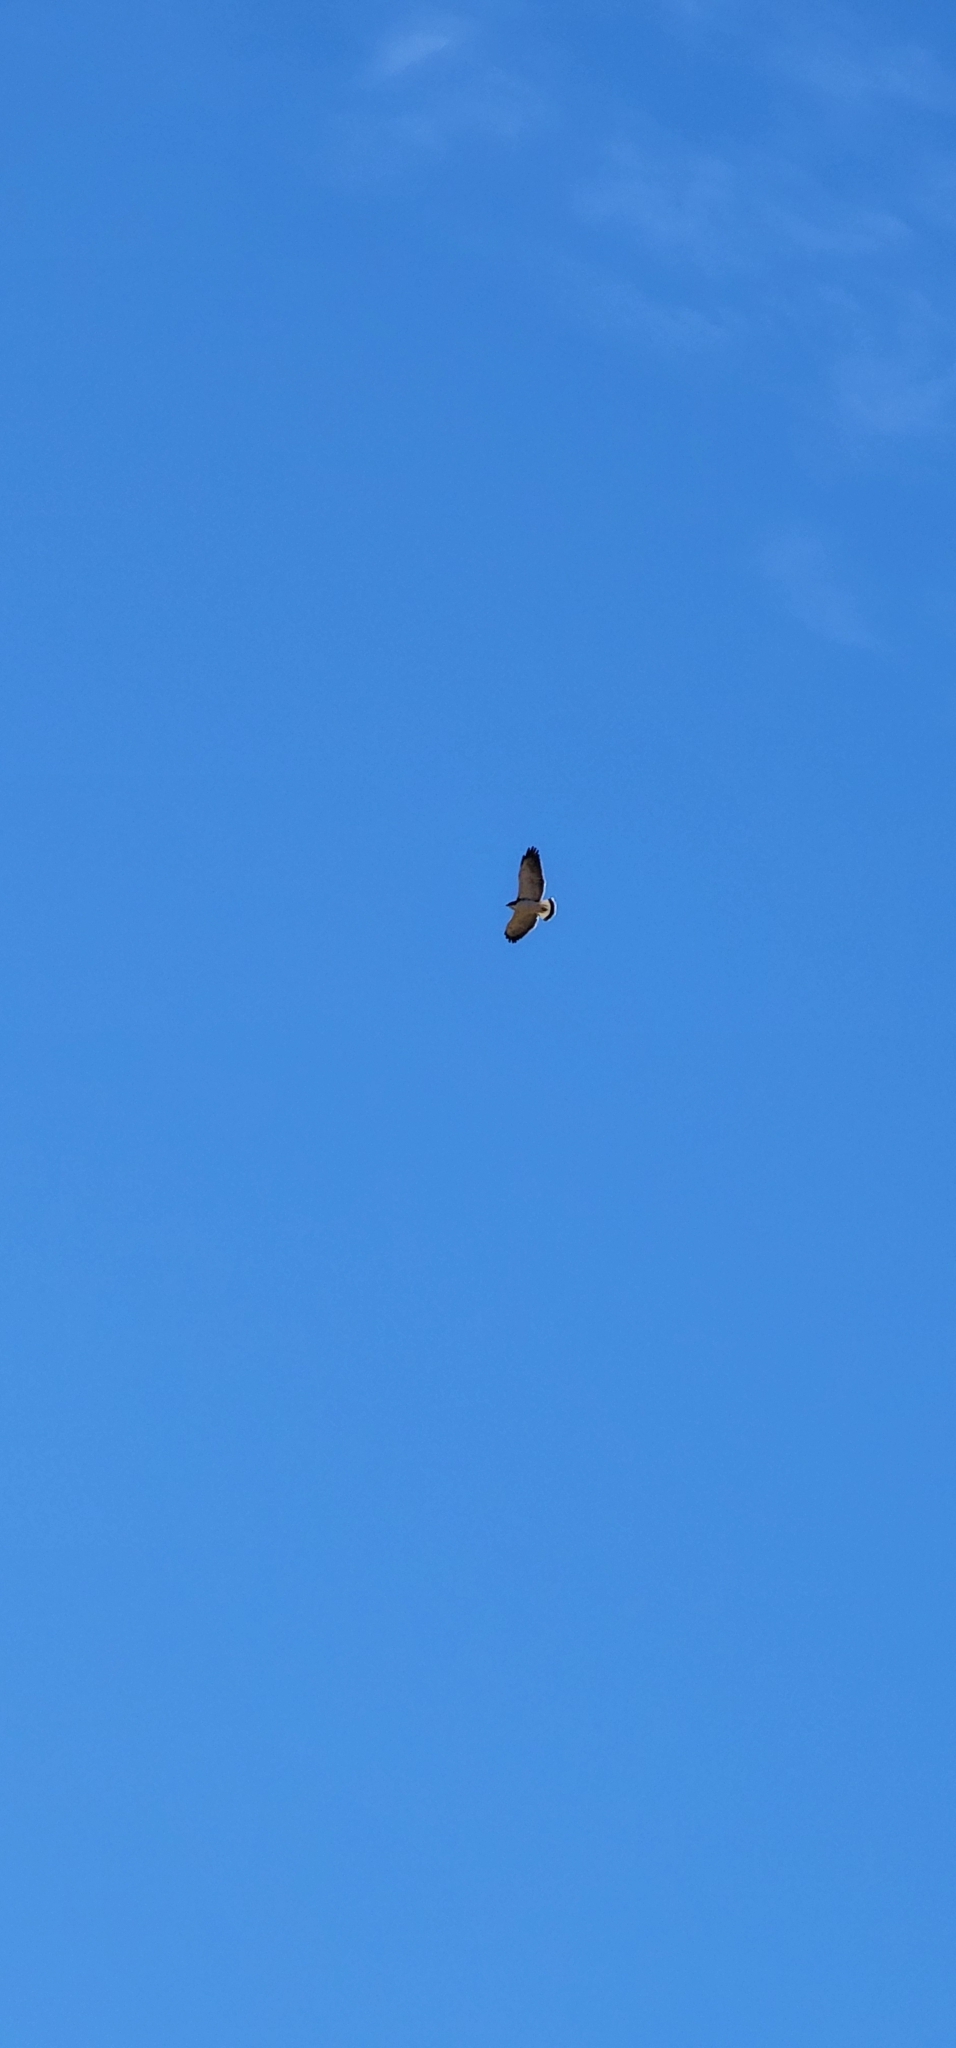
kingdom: Animalia
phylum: Chordata
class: Aves
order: Accipitriformes
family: Accipitridae
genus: Buteo
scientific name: Buteo polyosoma
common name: Variable hawk
